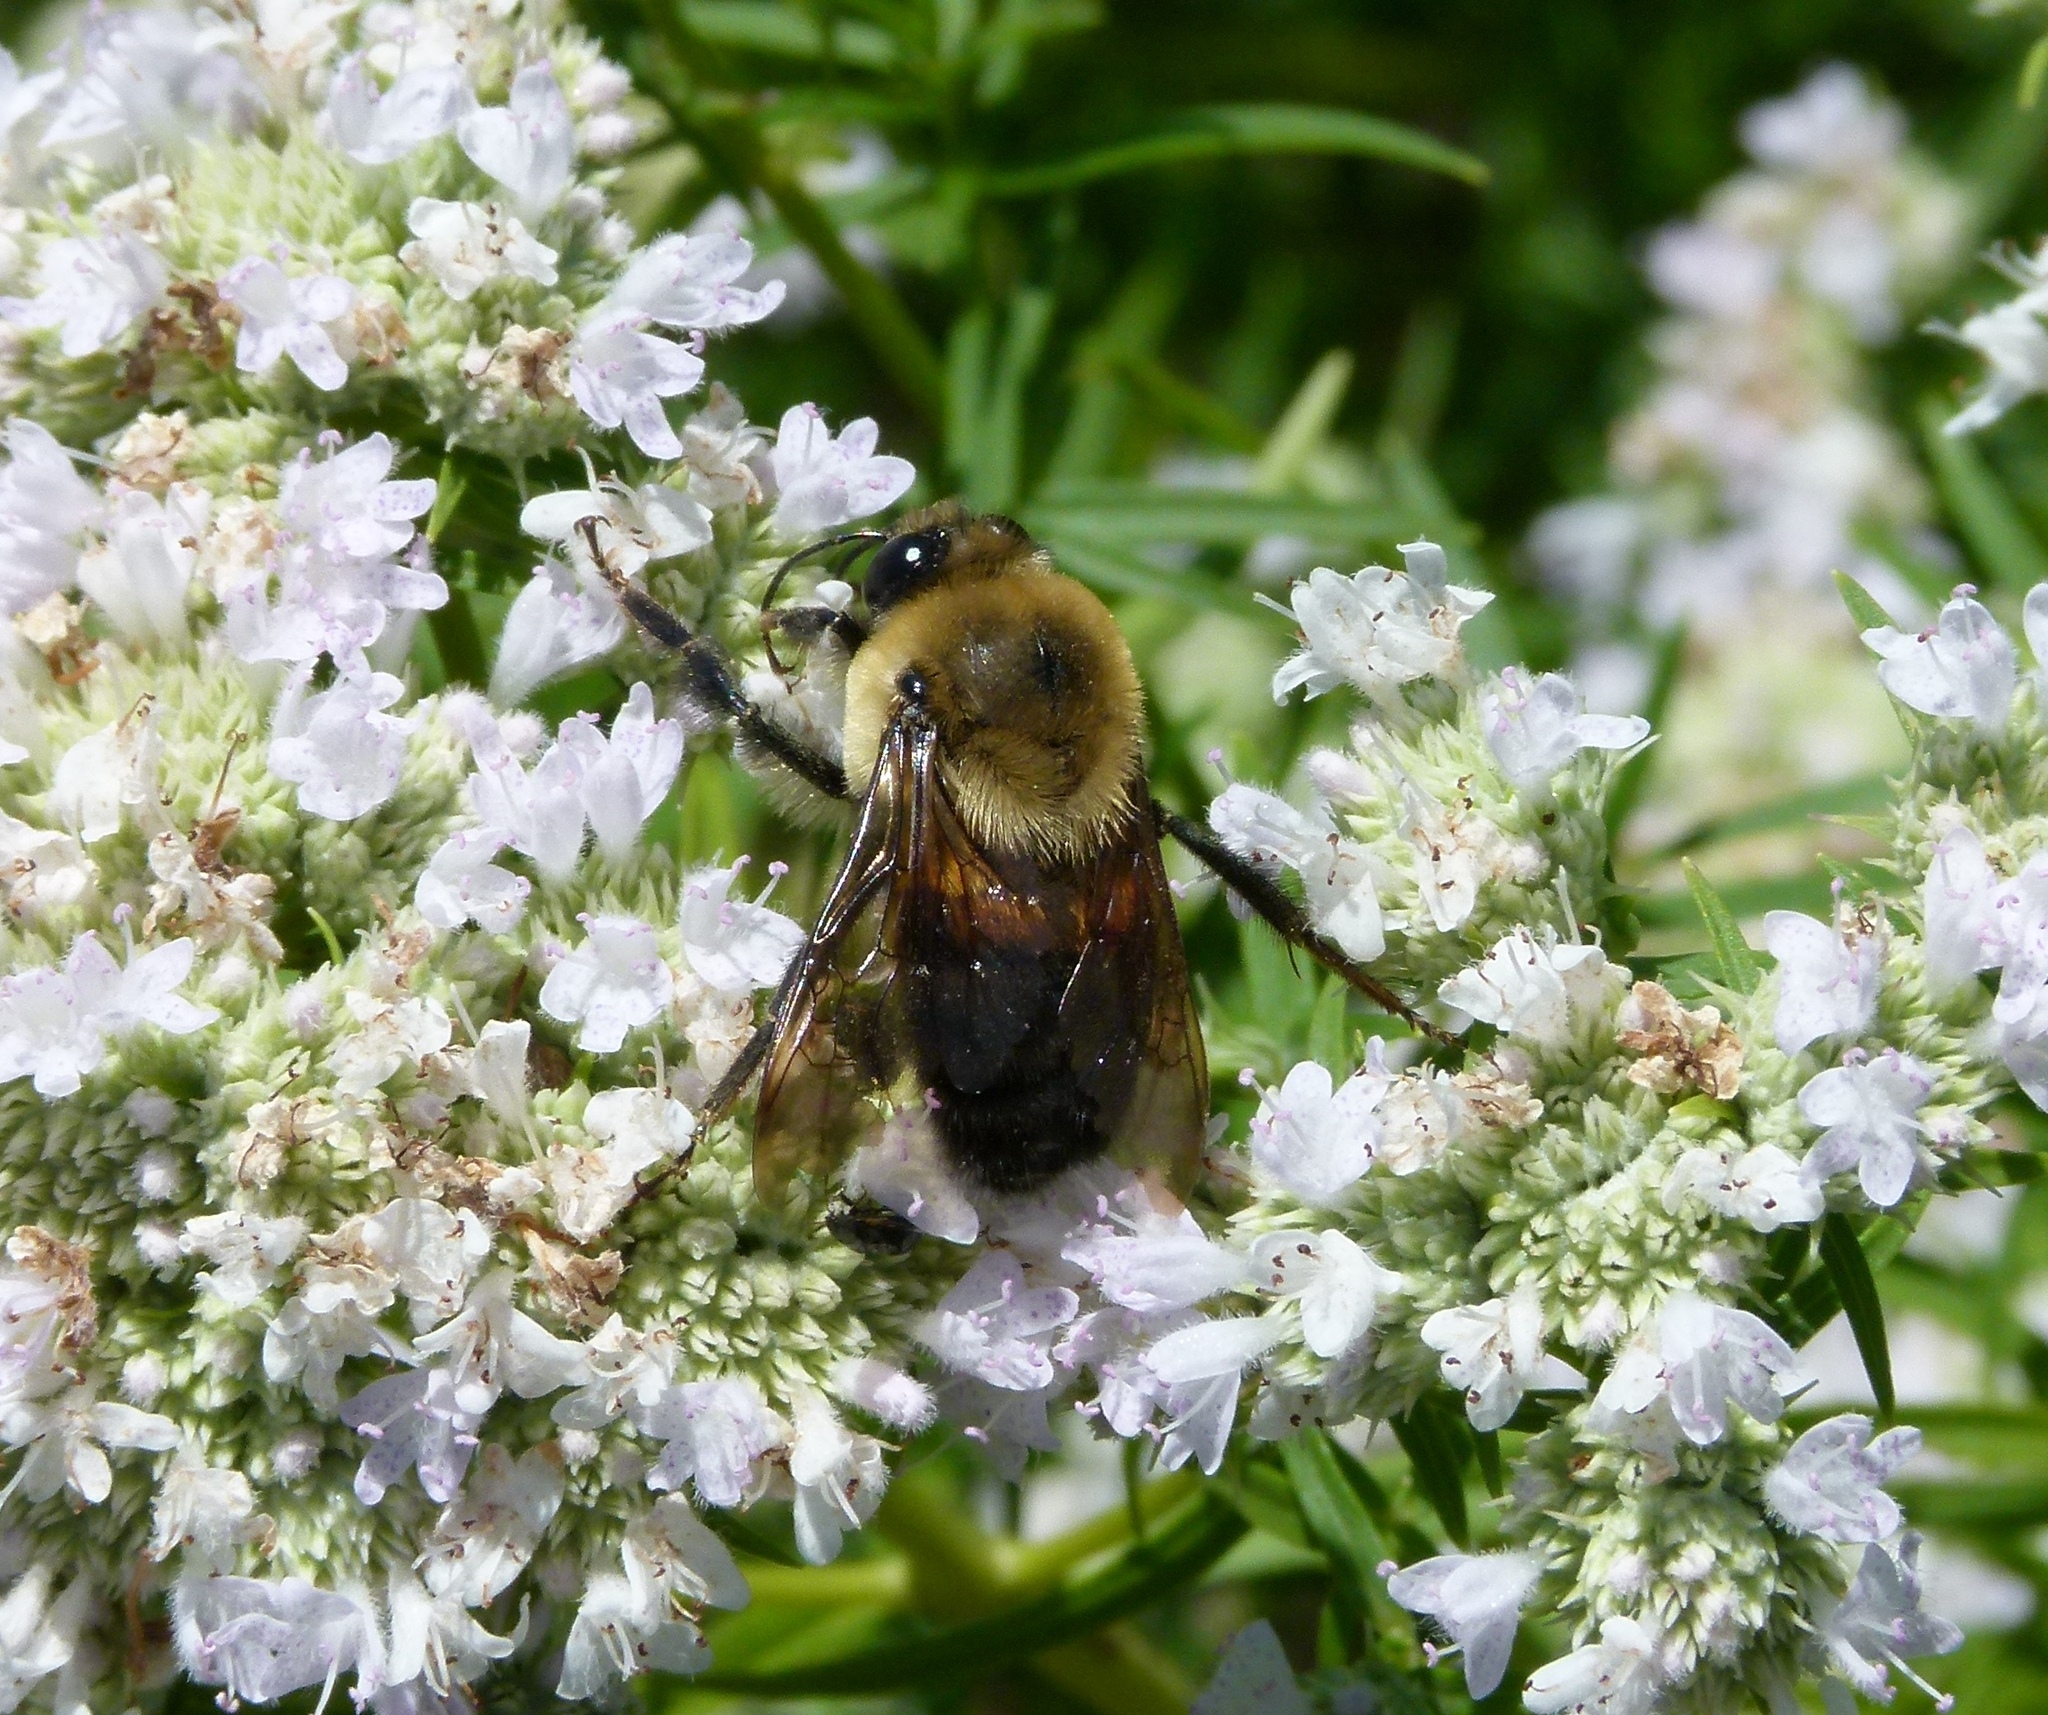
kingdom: Animalia
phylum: Arthropoda
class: Insecta
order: Hymenoptera
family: Apidae
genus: Bombus
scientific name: Bombus griseocollis
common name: Brown-belted bumble bee
